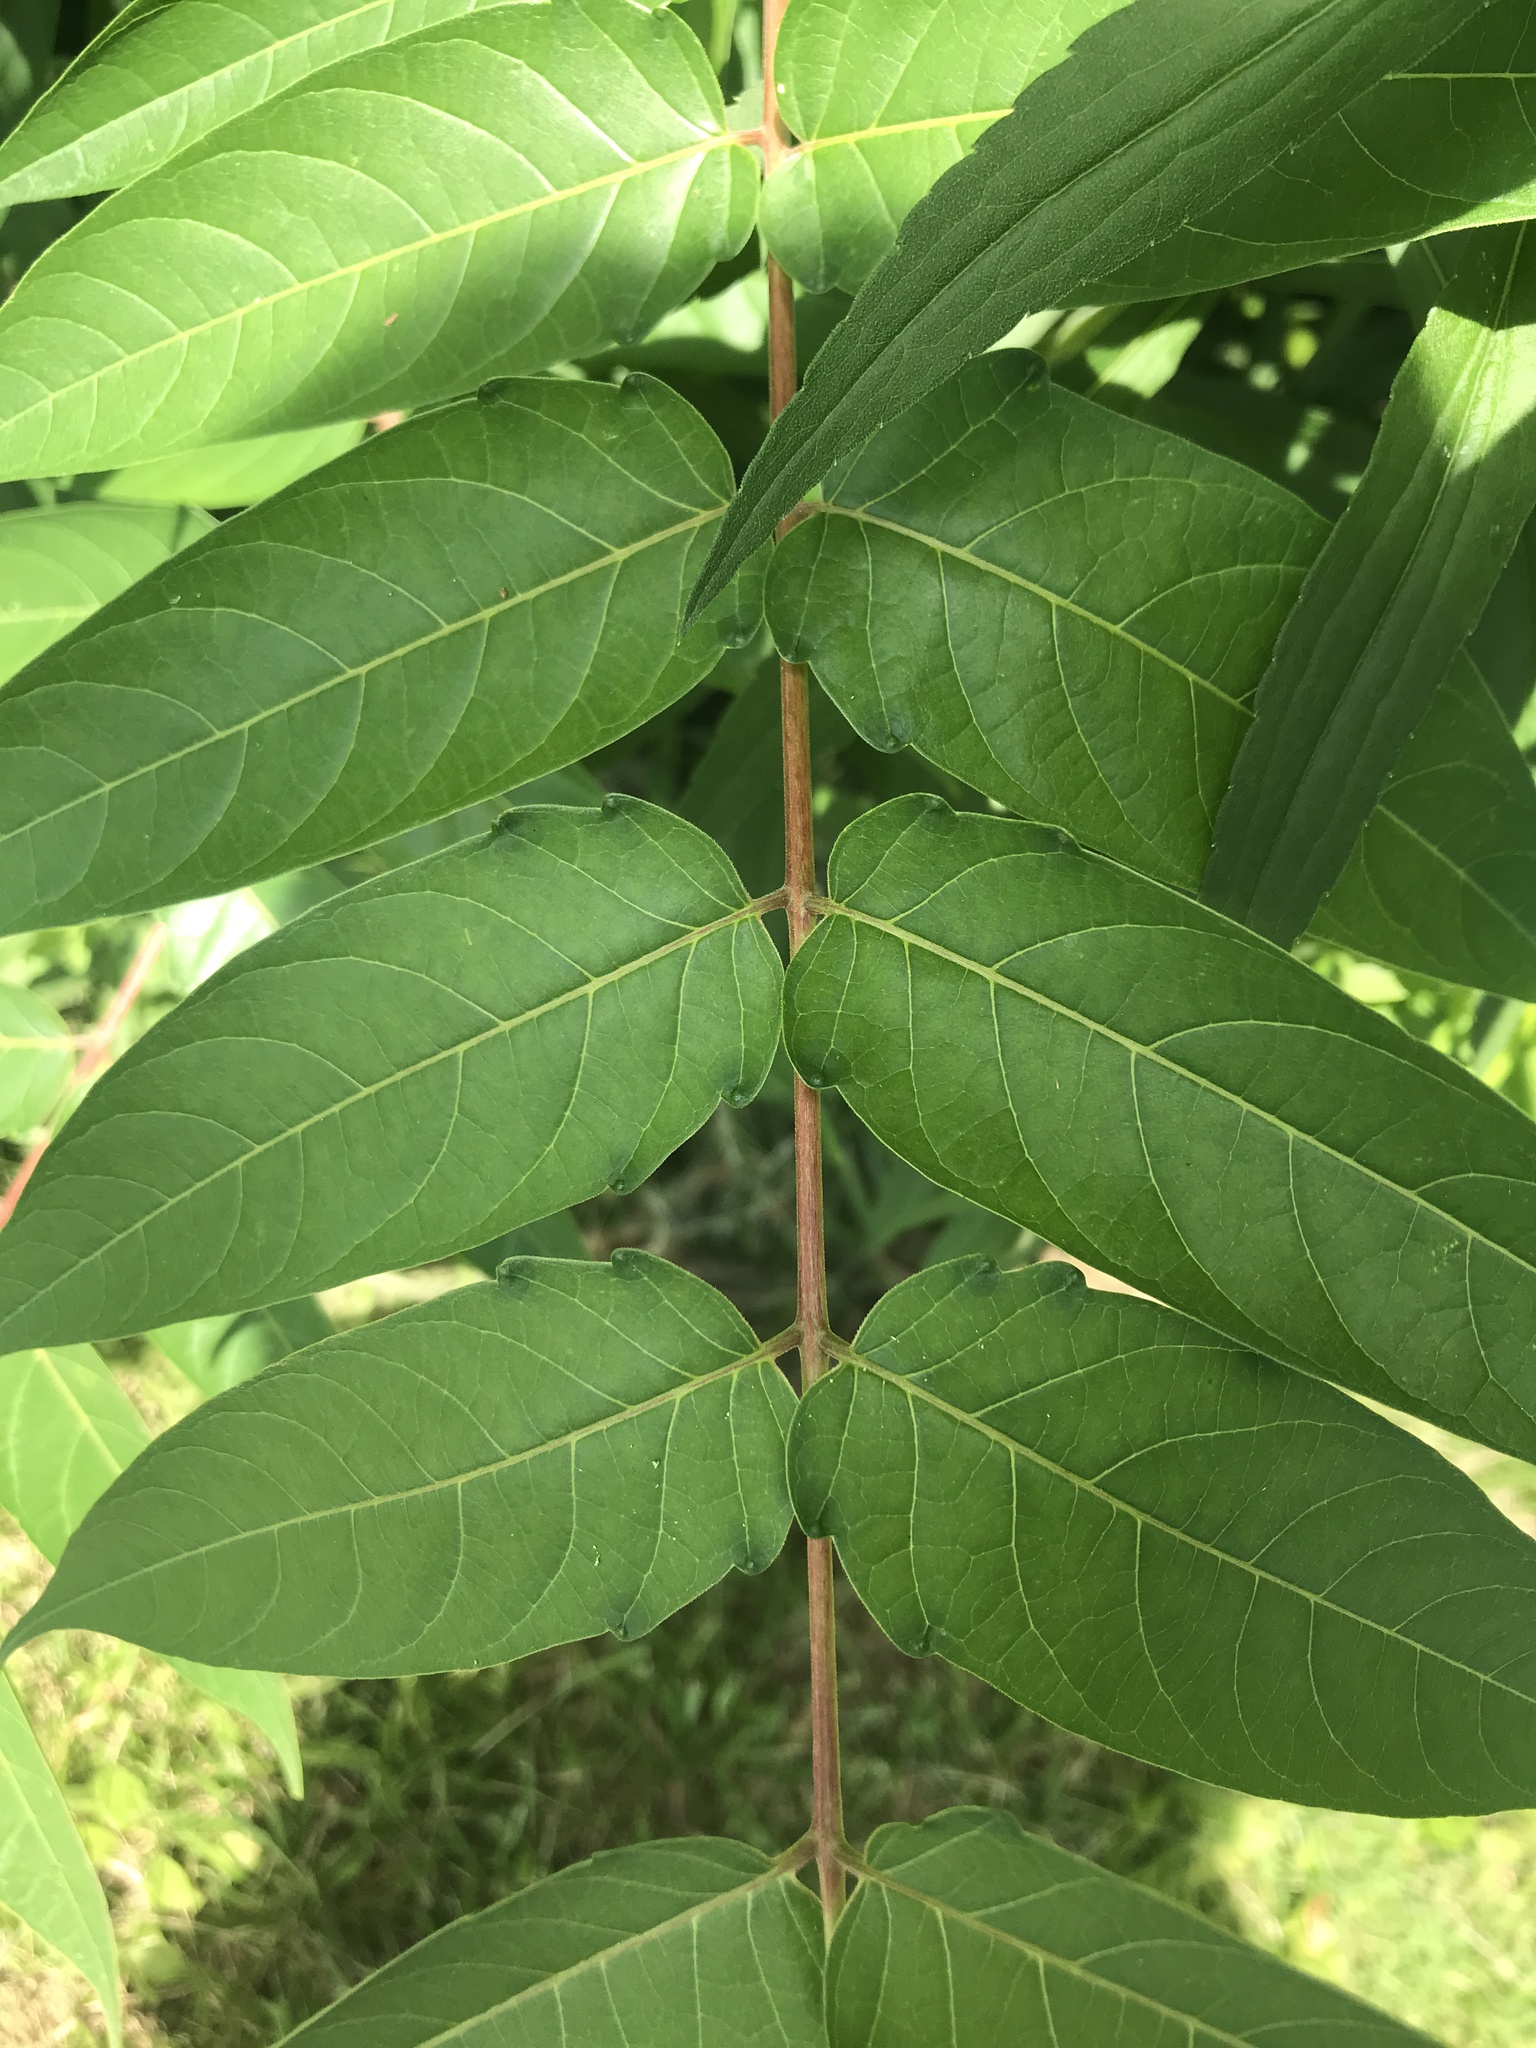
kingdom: Plantae
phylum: Tracheophyta
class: Magnoliopsida
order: Sapindales
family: Simaroubaceae
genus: Ailanthus
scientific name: Ailanthus altissima
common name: Tree-of-heaven
